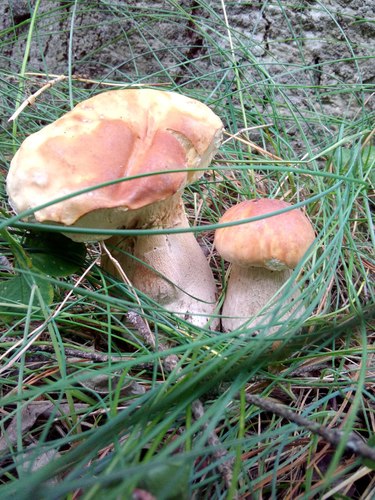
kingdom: Fungi
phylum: Basidiomycota
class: Agaricomycetes
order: Boletales
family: Boletaceae
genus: Boletus
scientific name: Boletus edulis
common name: Cep
